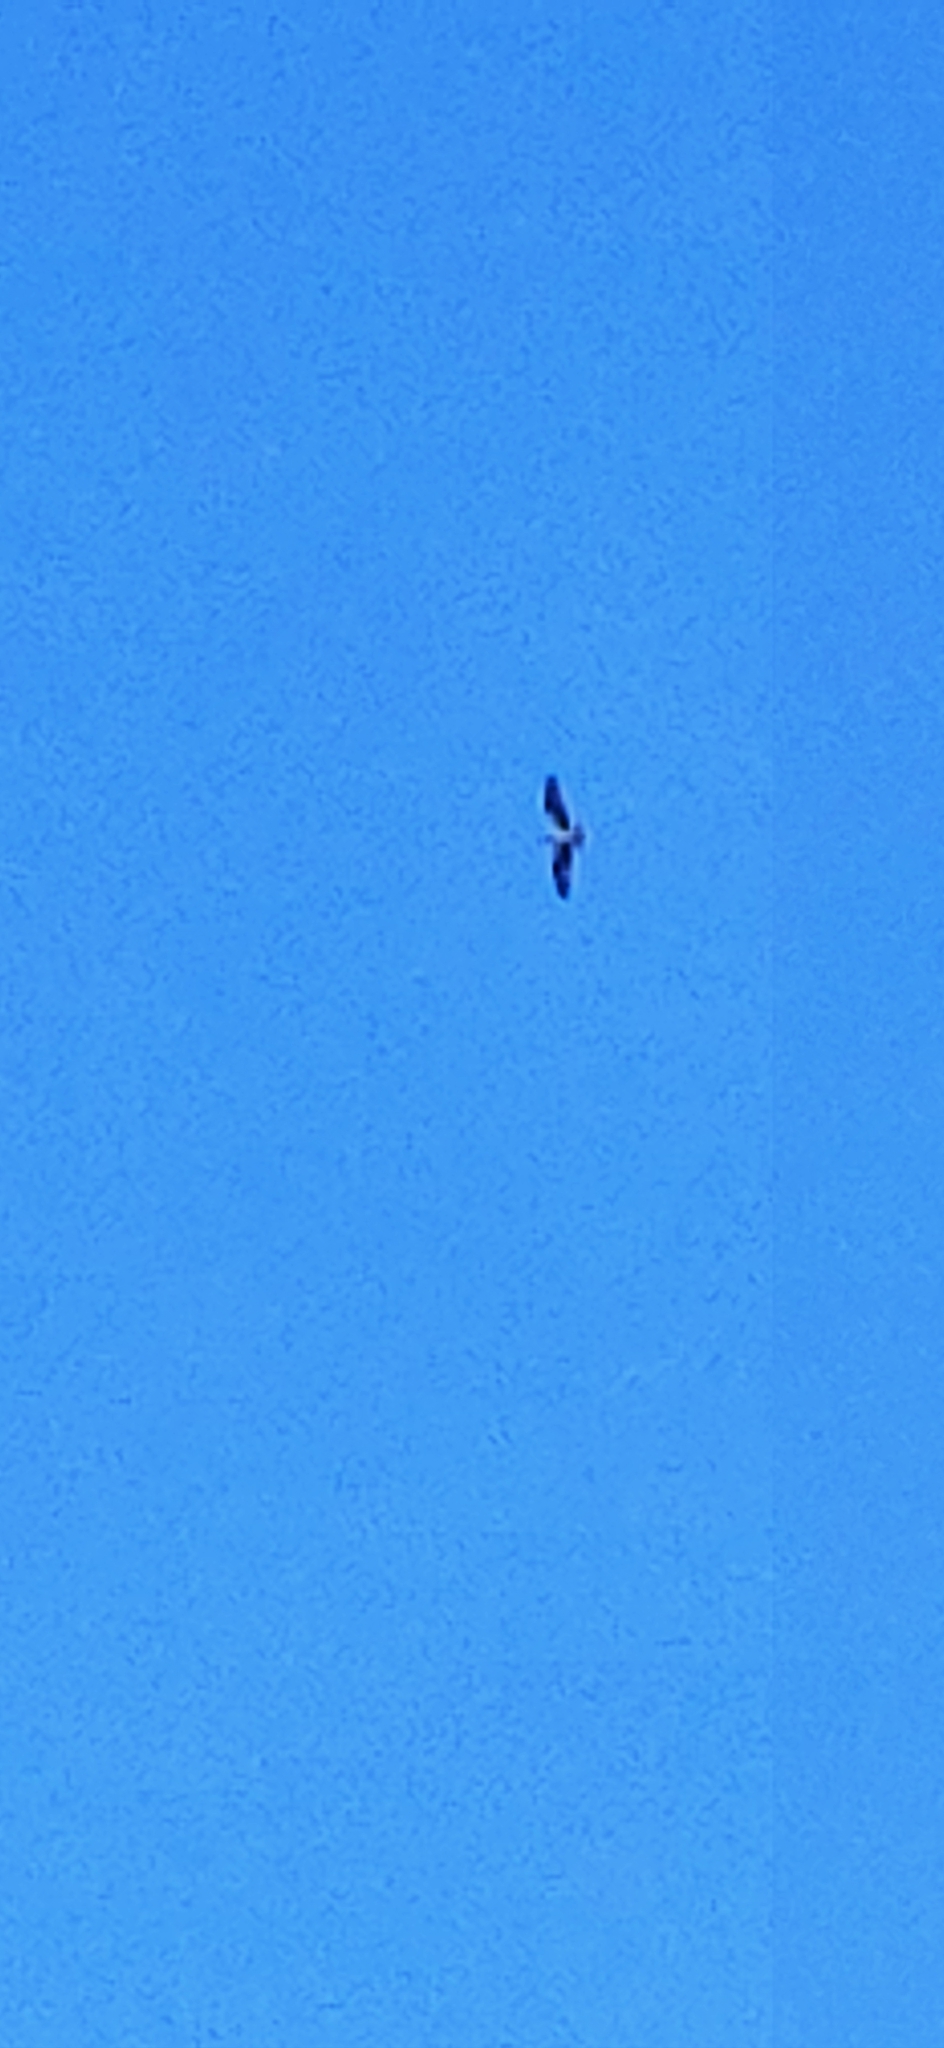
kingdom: Animalia
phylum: Chordata
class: Aves
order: Accipitriformes
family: Pandionidae
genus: Pandion
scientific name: Pandion haliaetus
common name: Osprey
